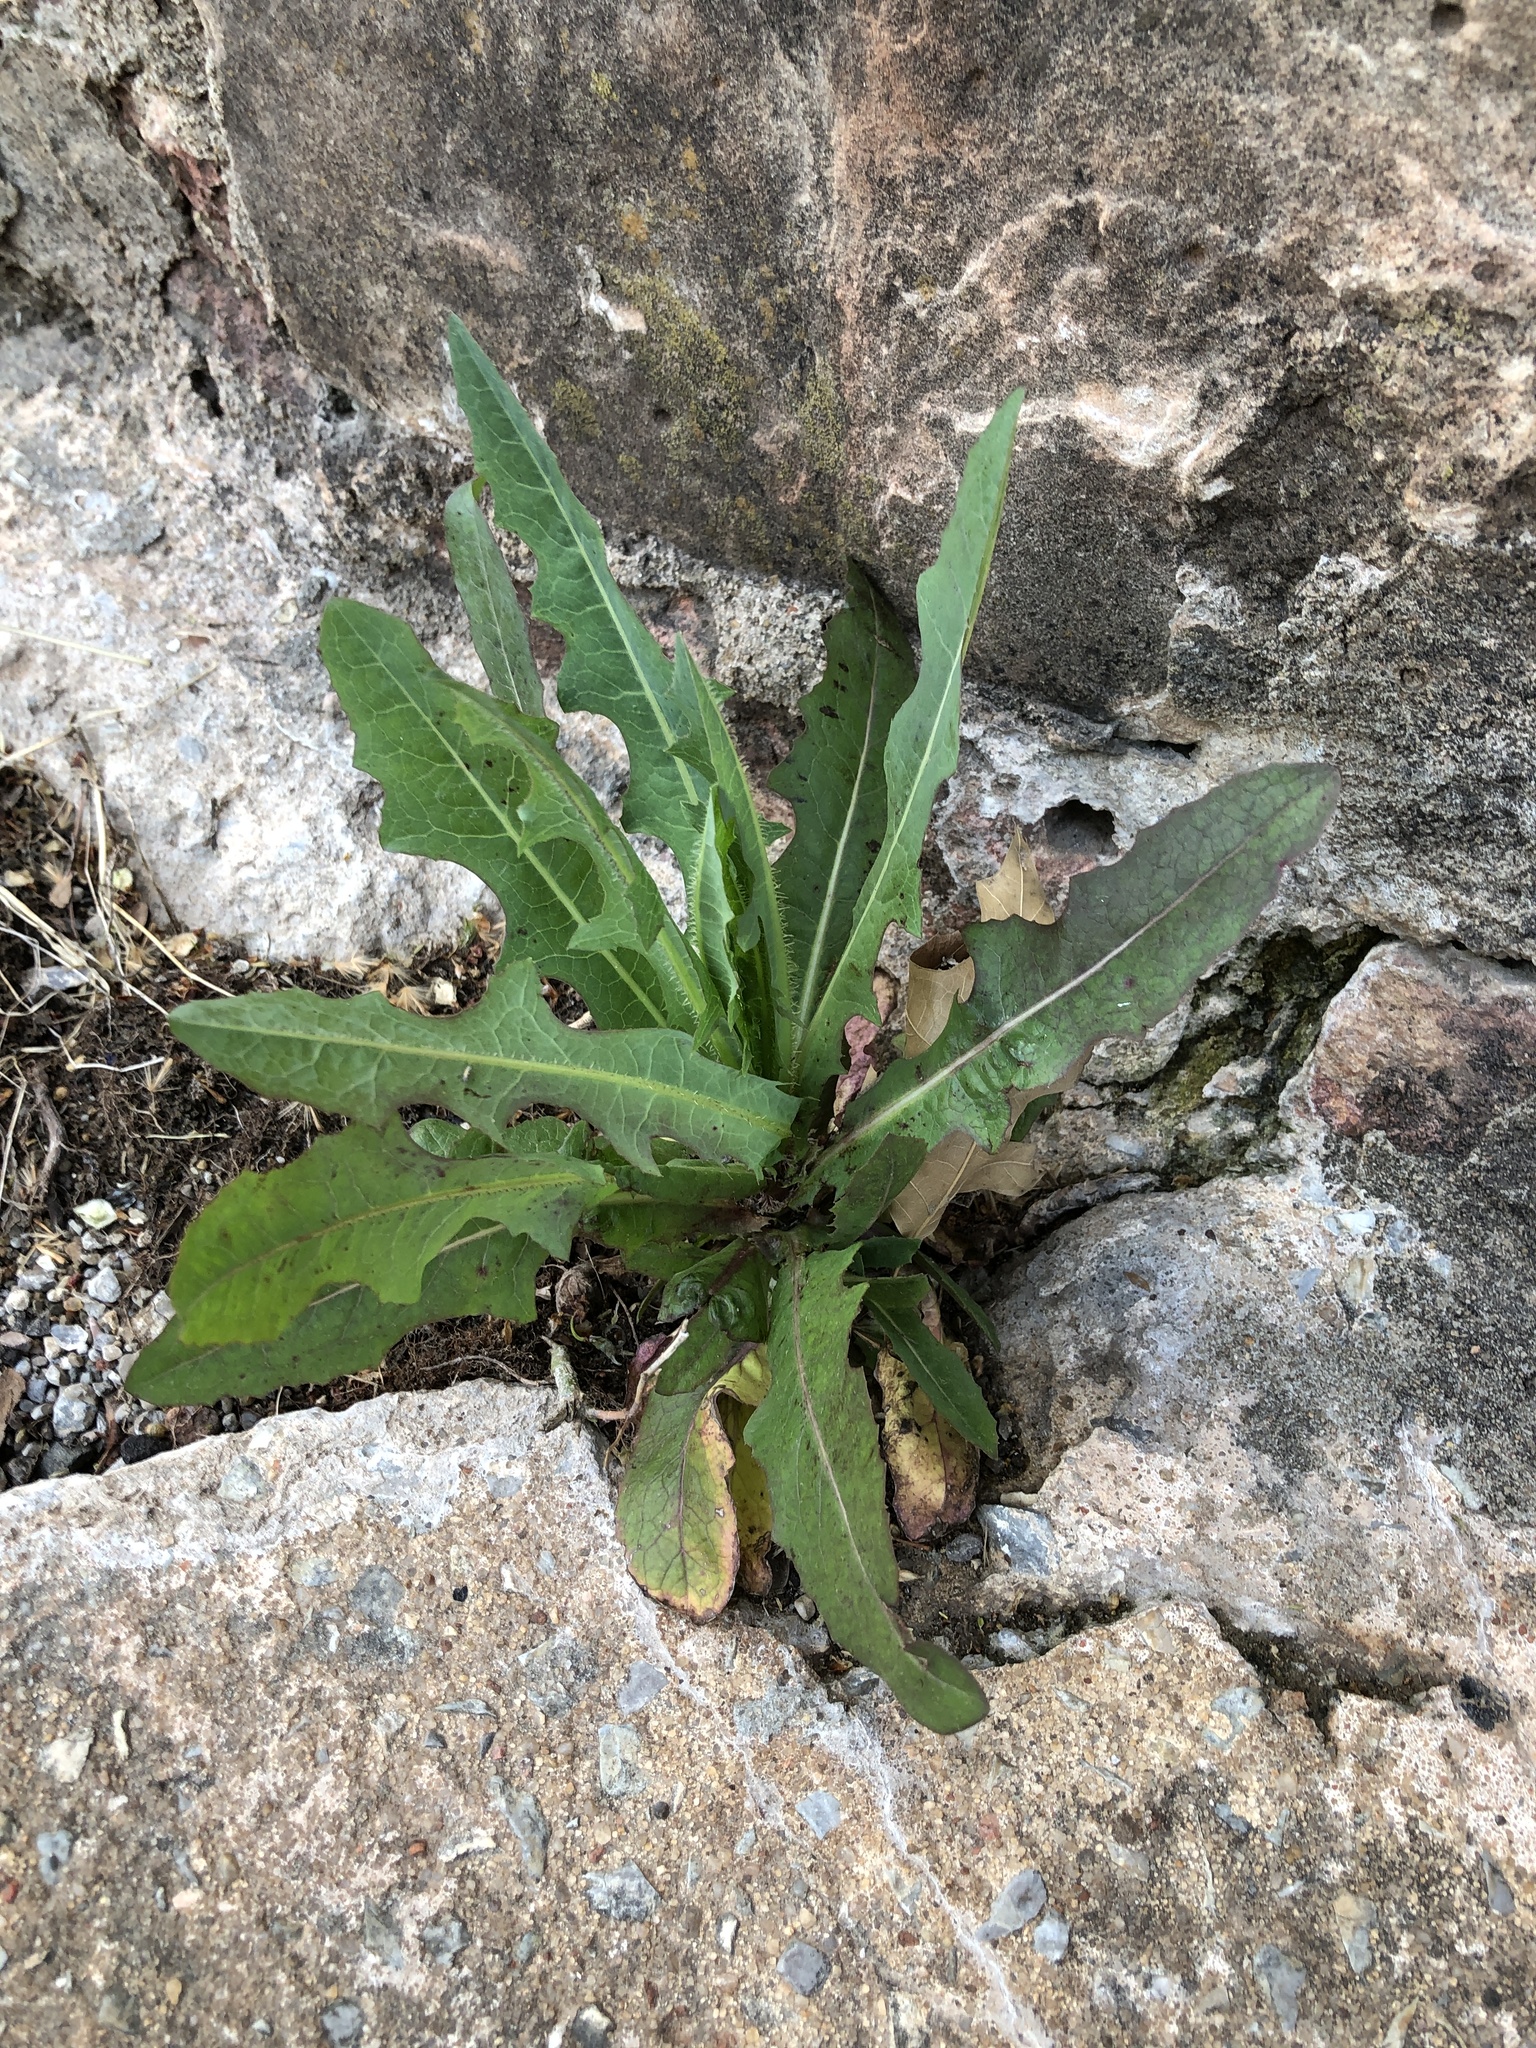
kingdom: Plantae
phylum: Tracheophyta
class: Magnoliopsida
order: Asterales
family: Asteraceae
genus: Lactuca
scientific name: Lactuca serriola
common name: Prickly lettuce
